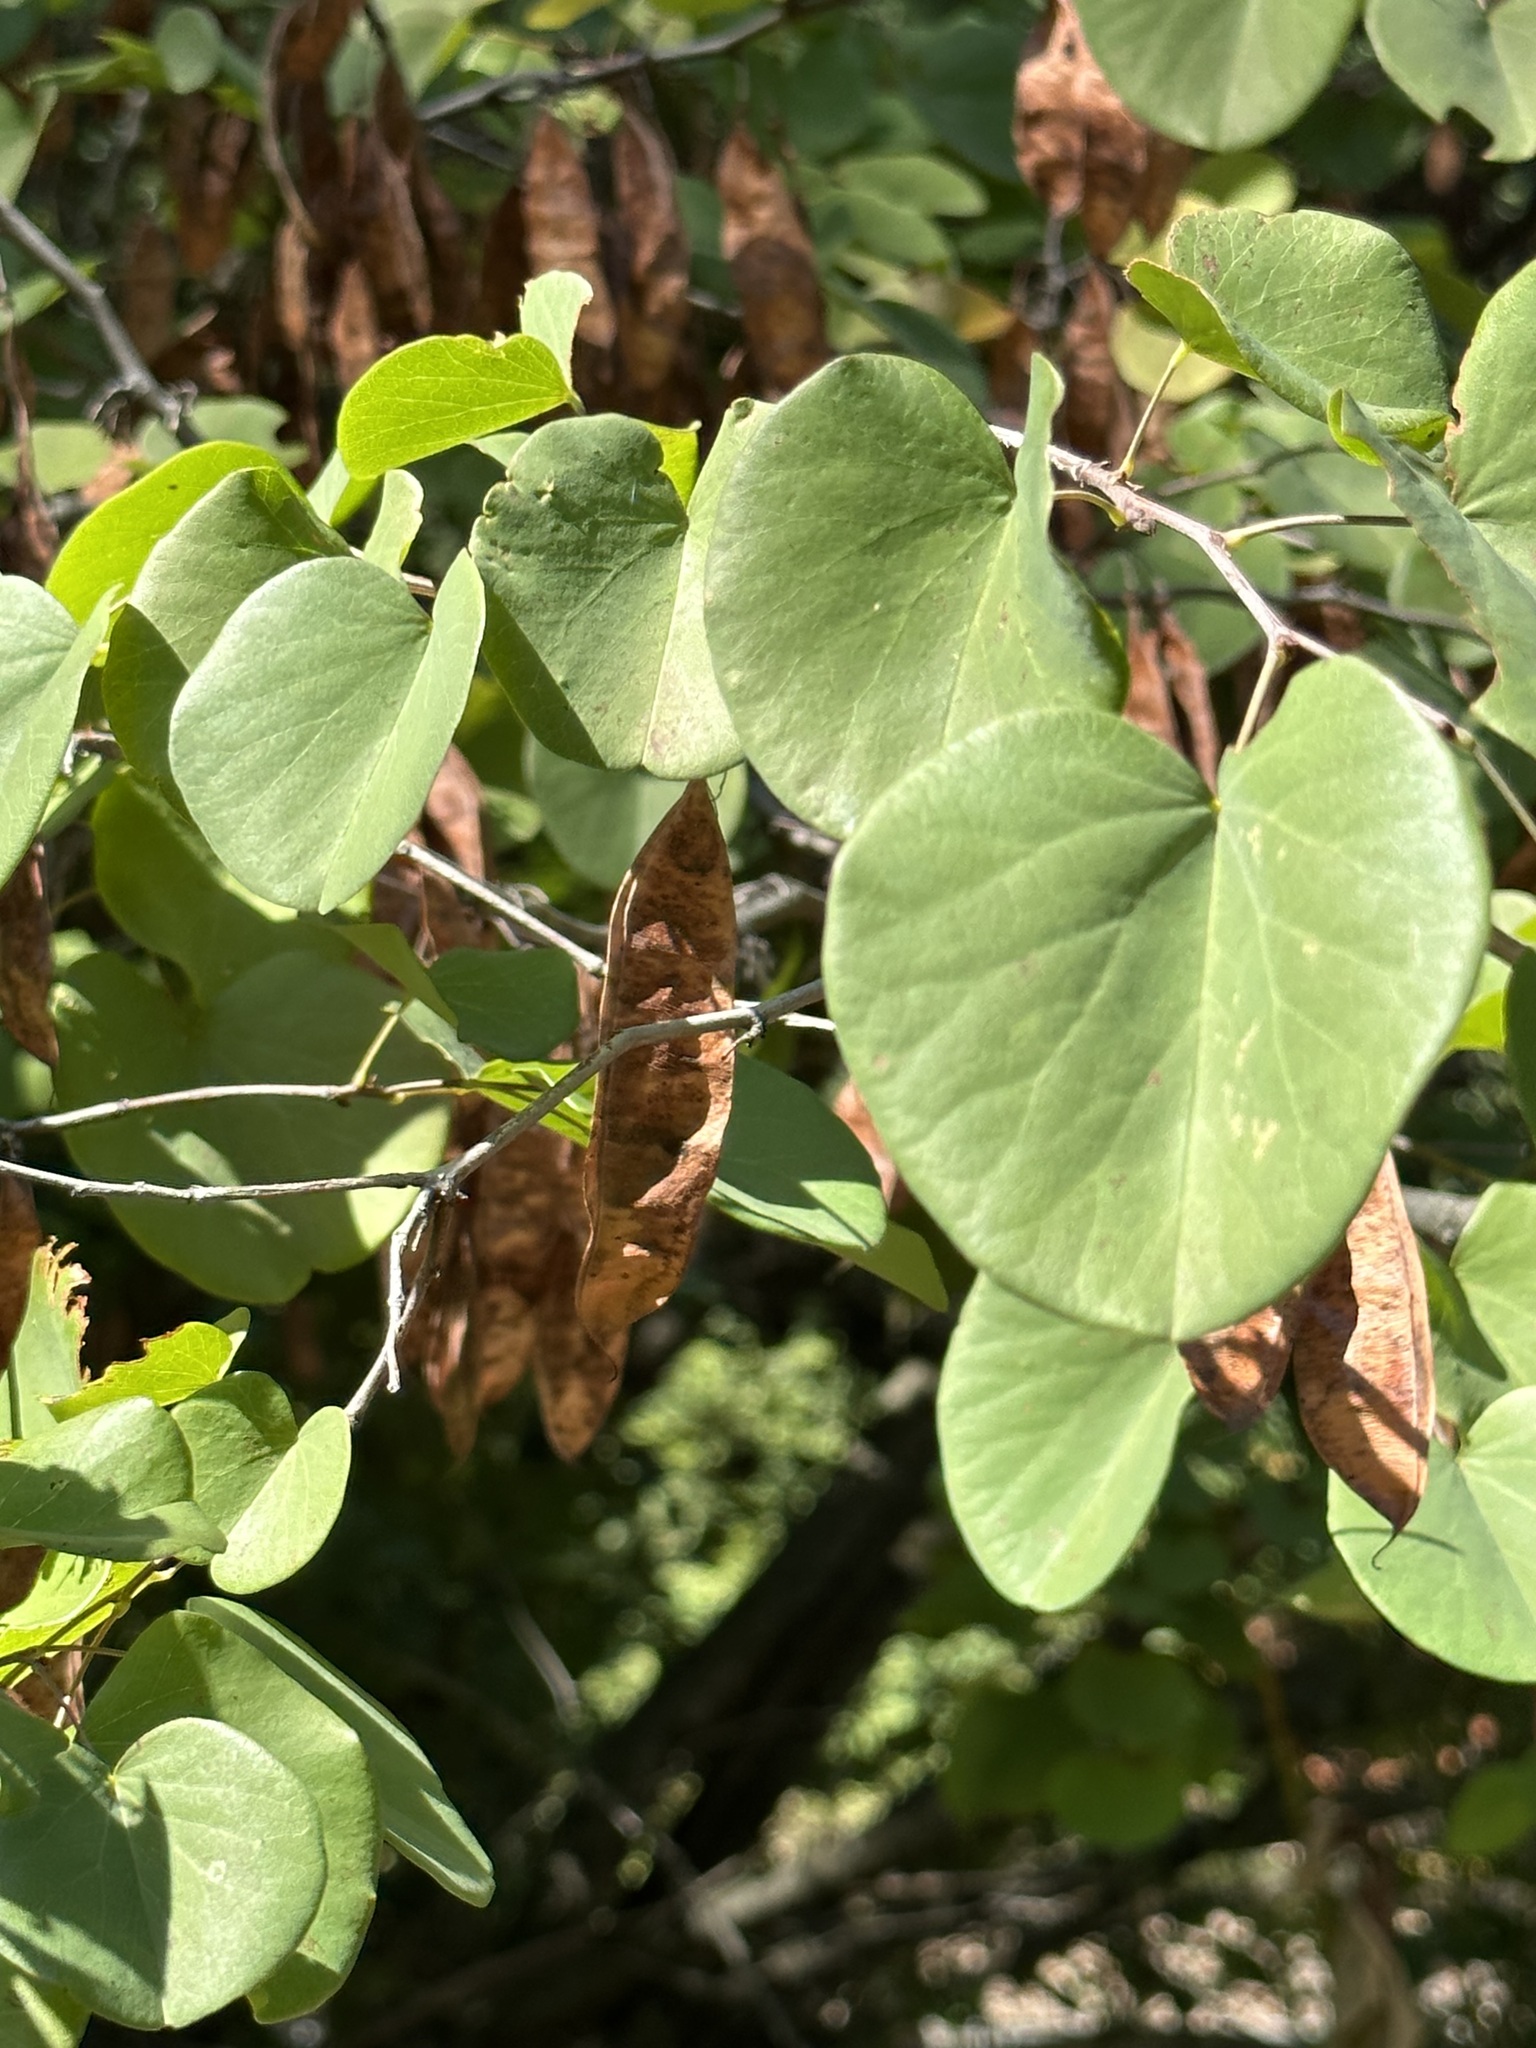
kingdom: Plantae
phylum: Tracheophyta
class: Magnoliopsida
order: Fabales
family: Fabaceae
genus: Cercis
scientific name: Cercis occidentalis
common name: California redbud
